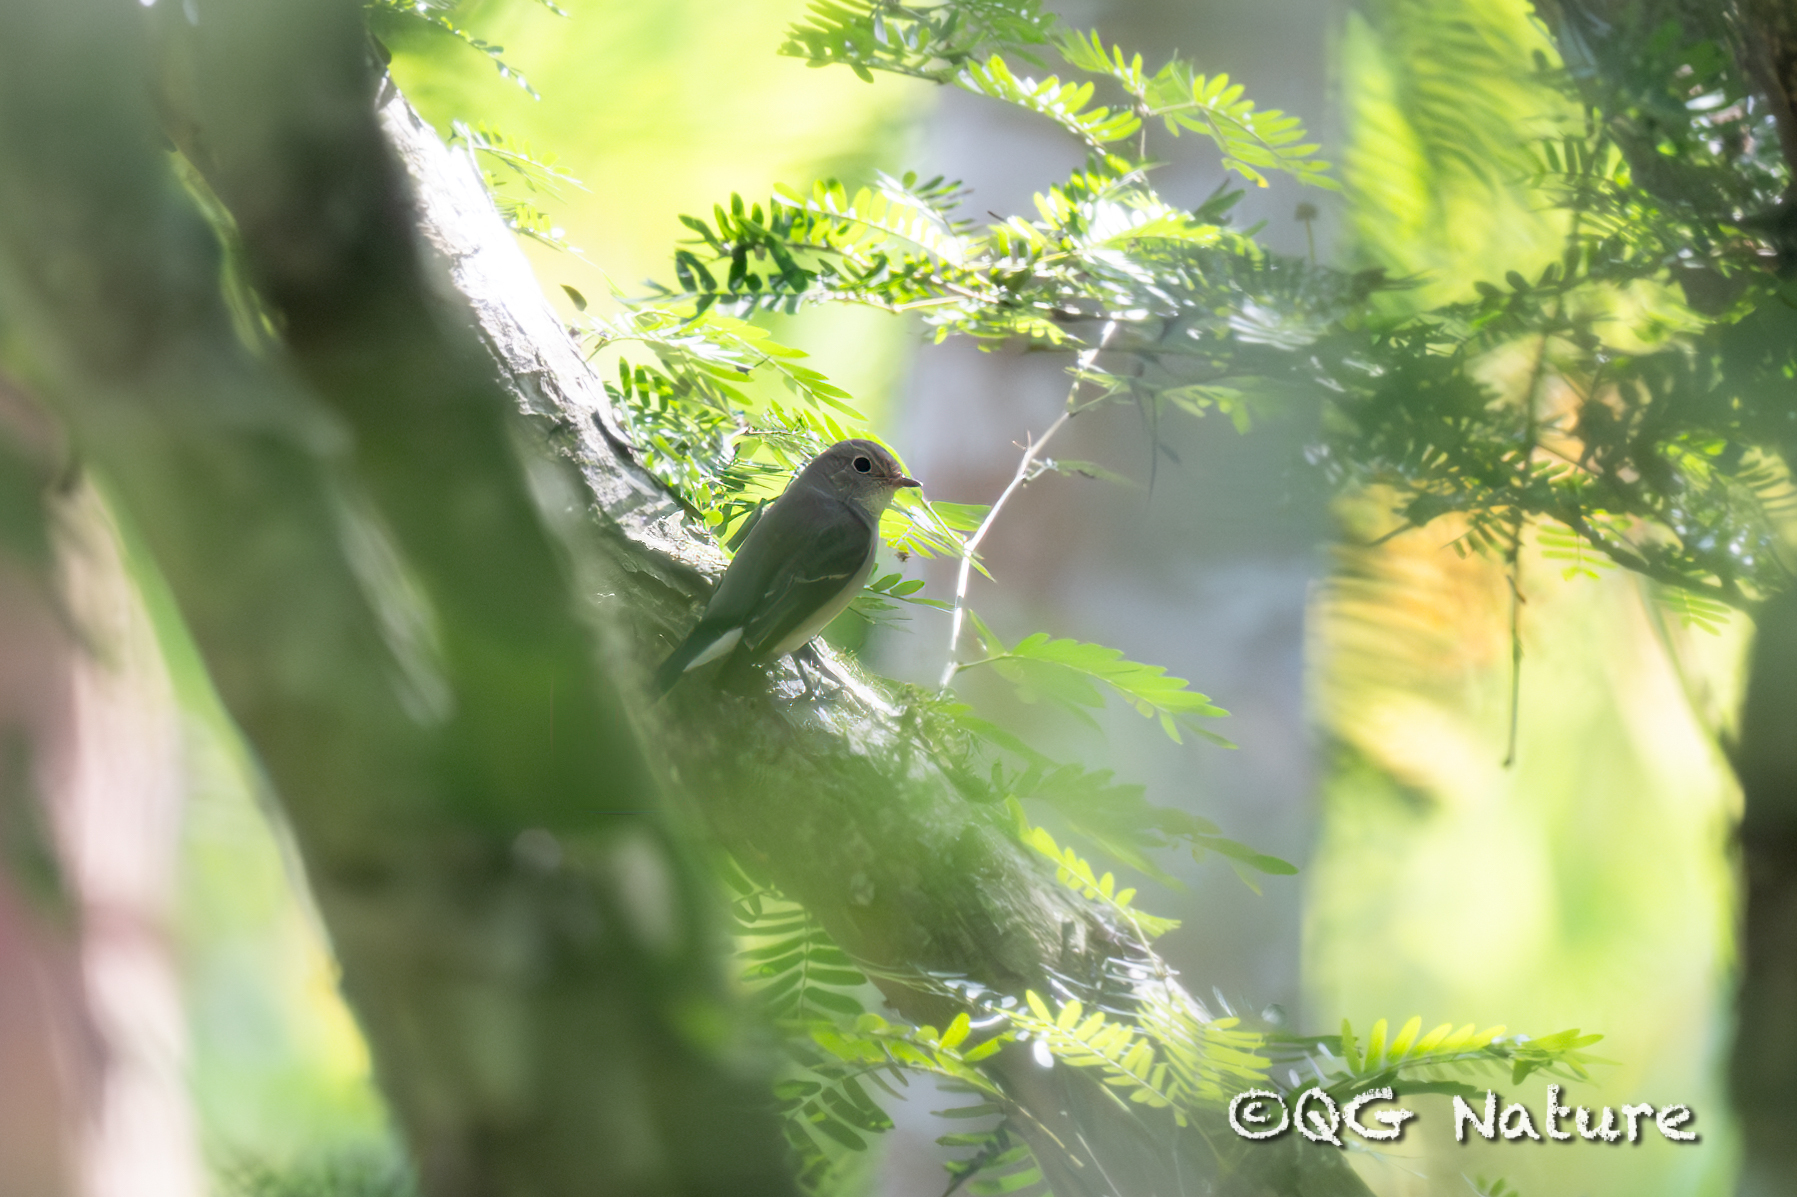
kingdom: Animalia
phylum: Chordata
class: Aves
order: Passeriformes
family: Muscicapidae
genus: Ficedula
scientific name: Ficedula albicilla
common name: Taiga flycatcher
